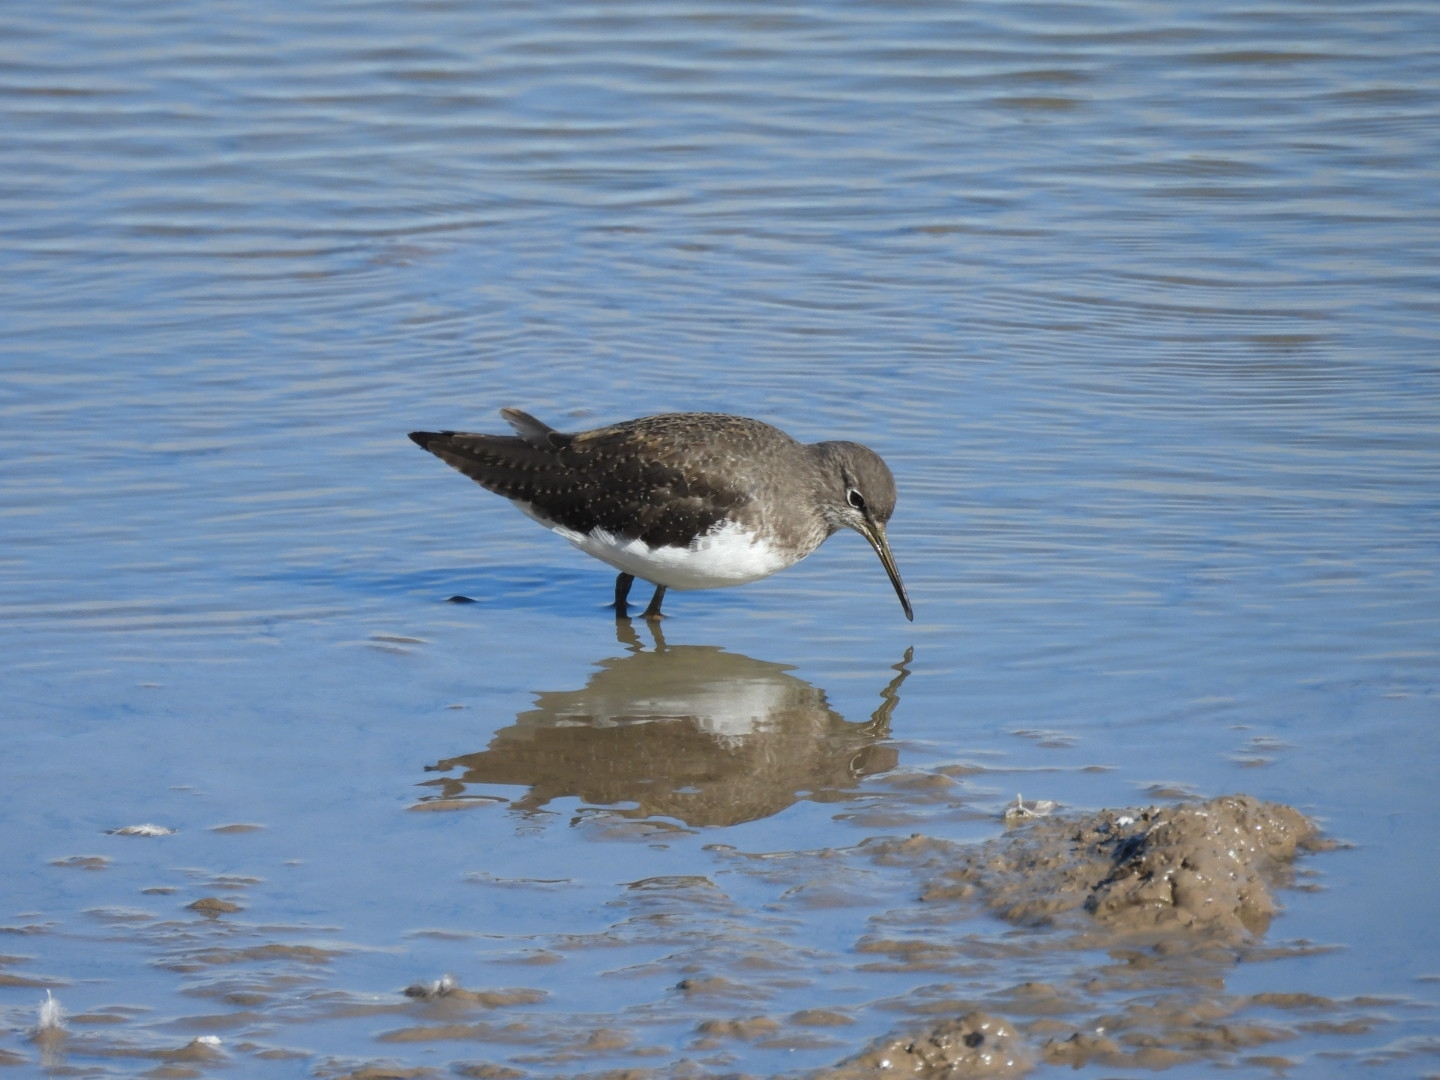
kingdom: Animalia
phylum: Chordata
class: Aves
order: Charadriiformes
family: Scolopacidae
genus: Tringa
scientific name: Tringa ochropus
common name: Green sandpiper
